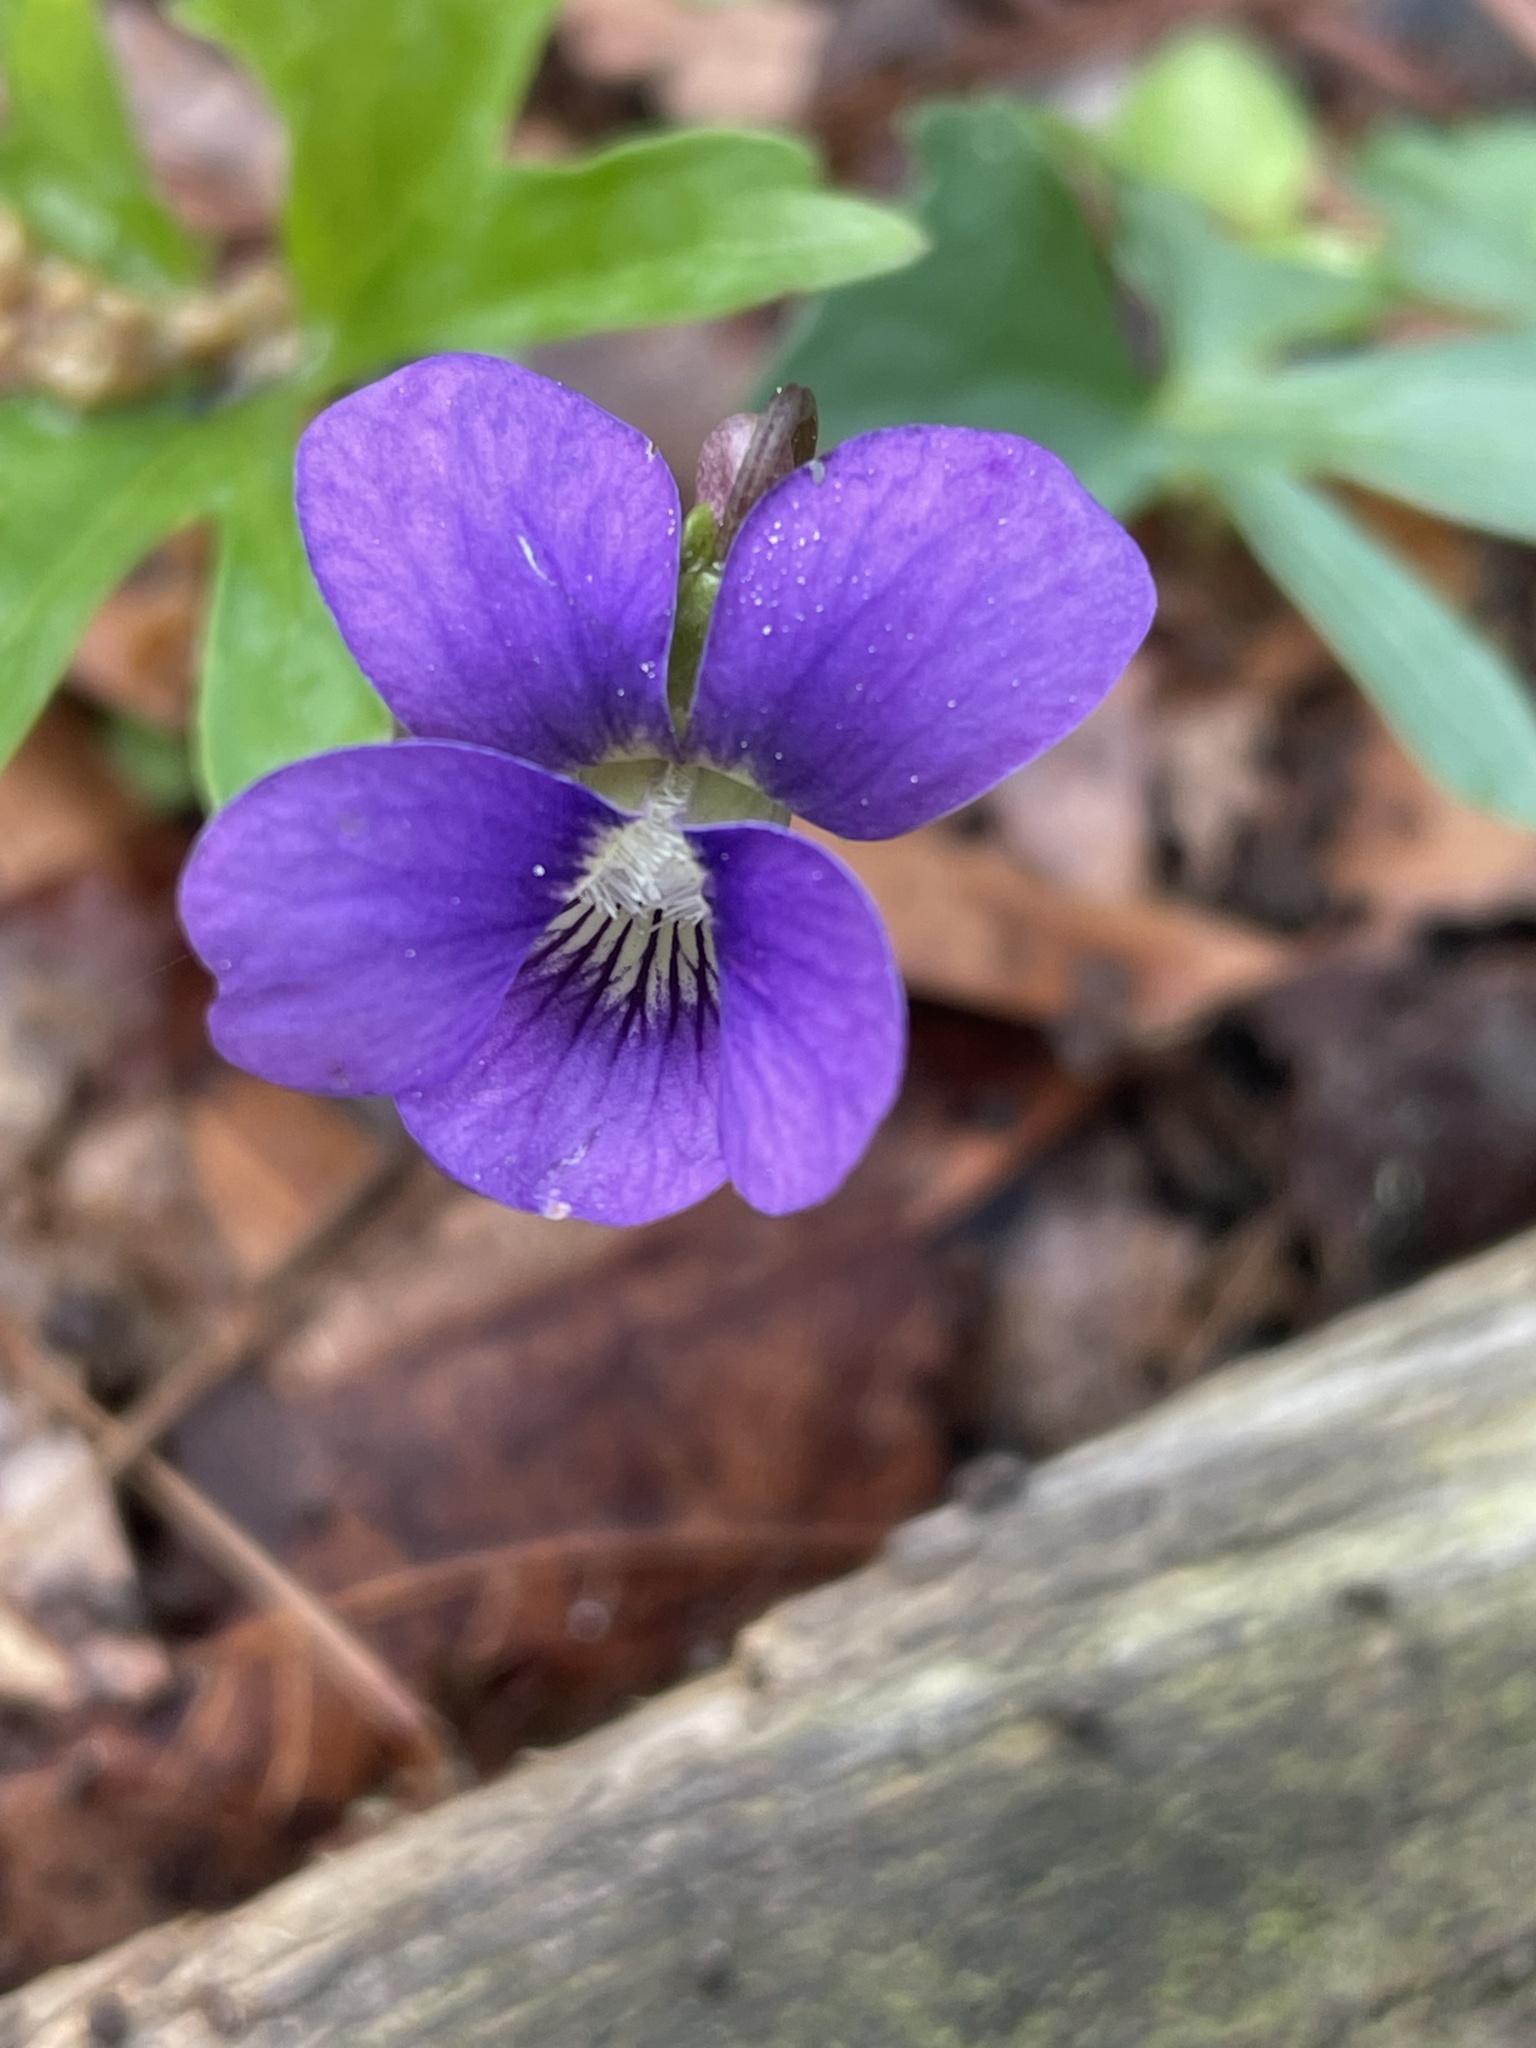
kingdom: Plantae
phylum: Tracheophyta
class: Magnoliopsida
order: Malpighiales
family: Violaceae
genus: Viola
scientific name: Viola palmata
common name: Early blue violet
